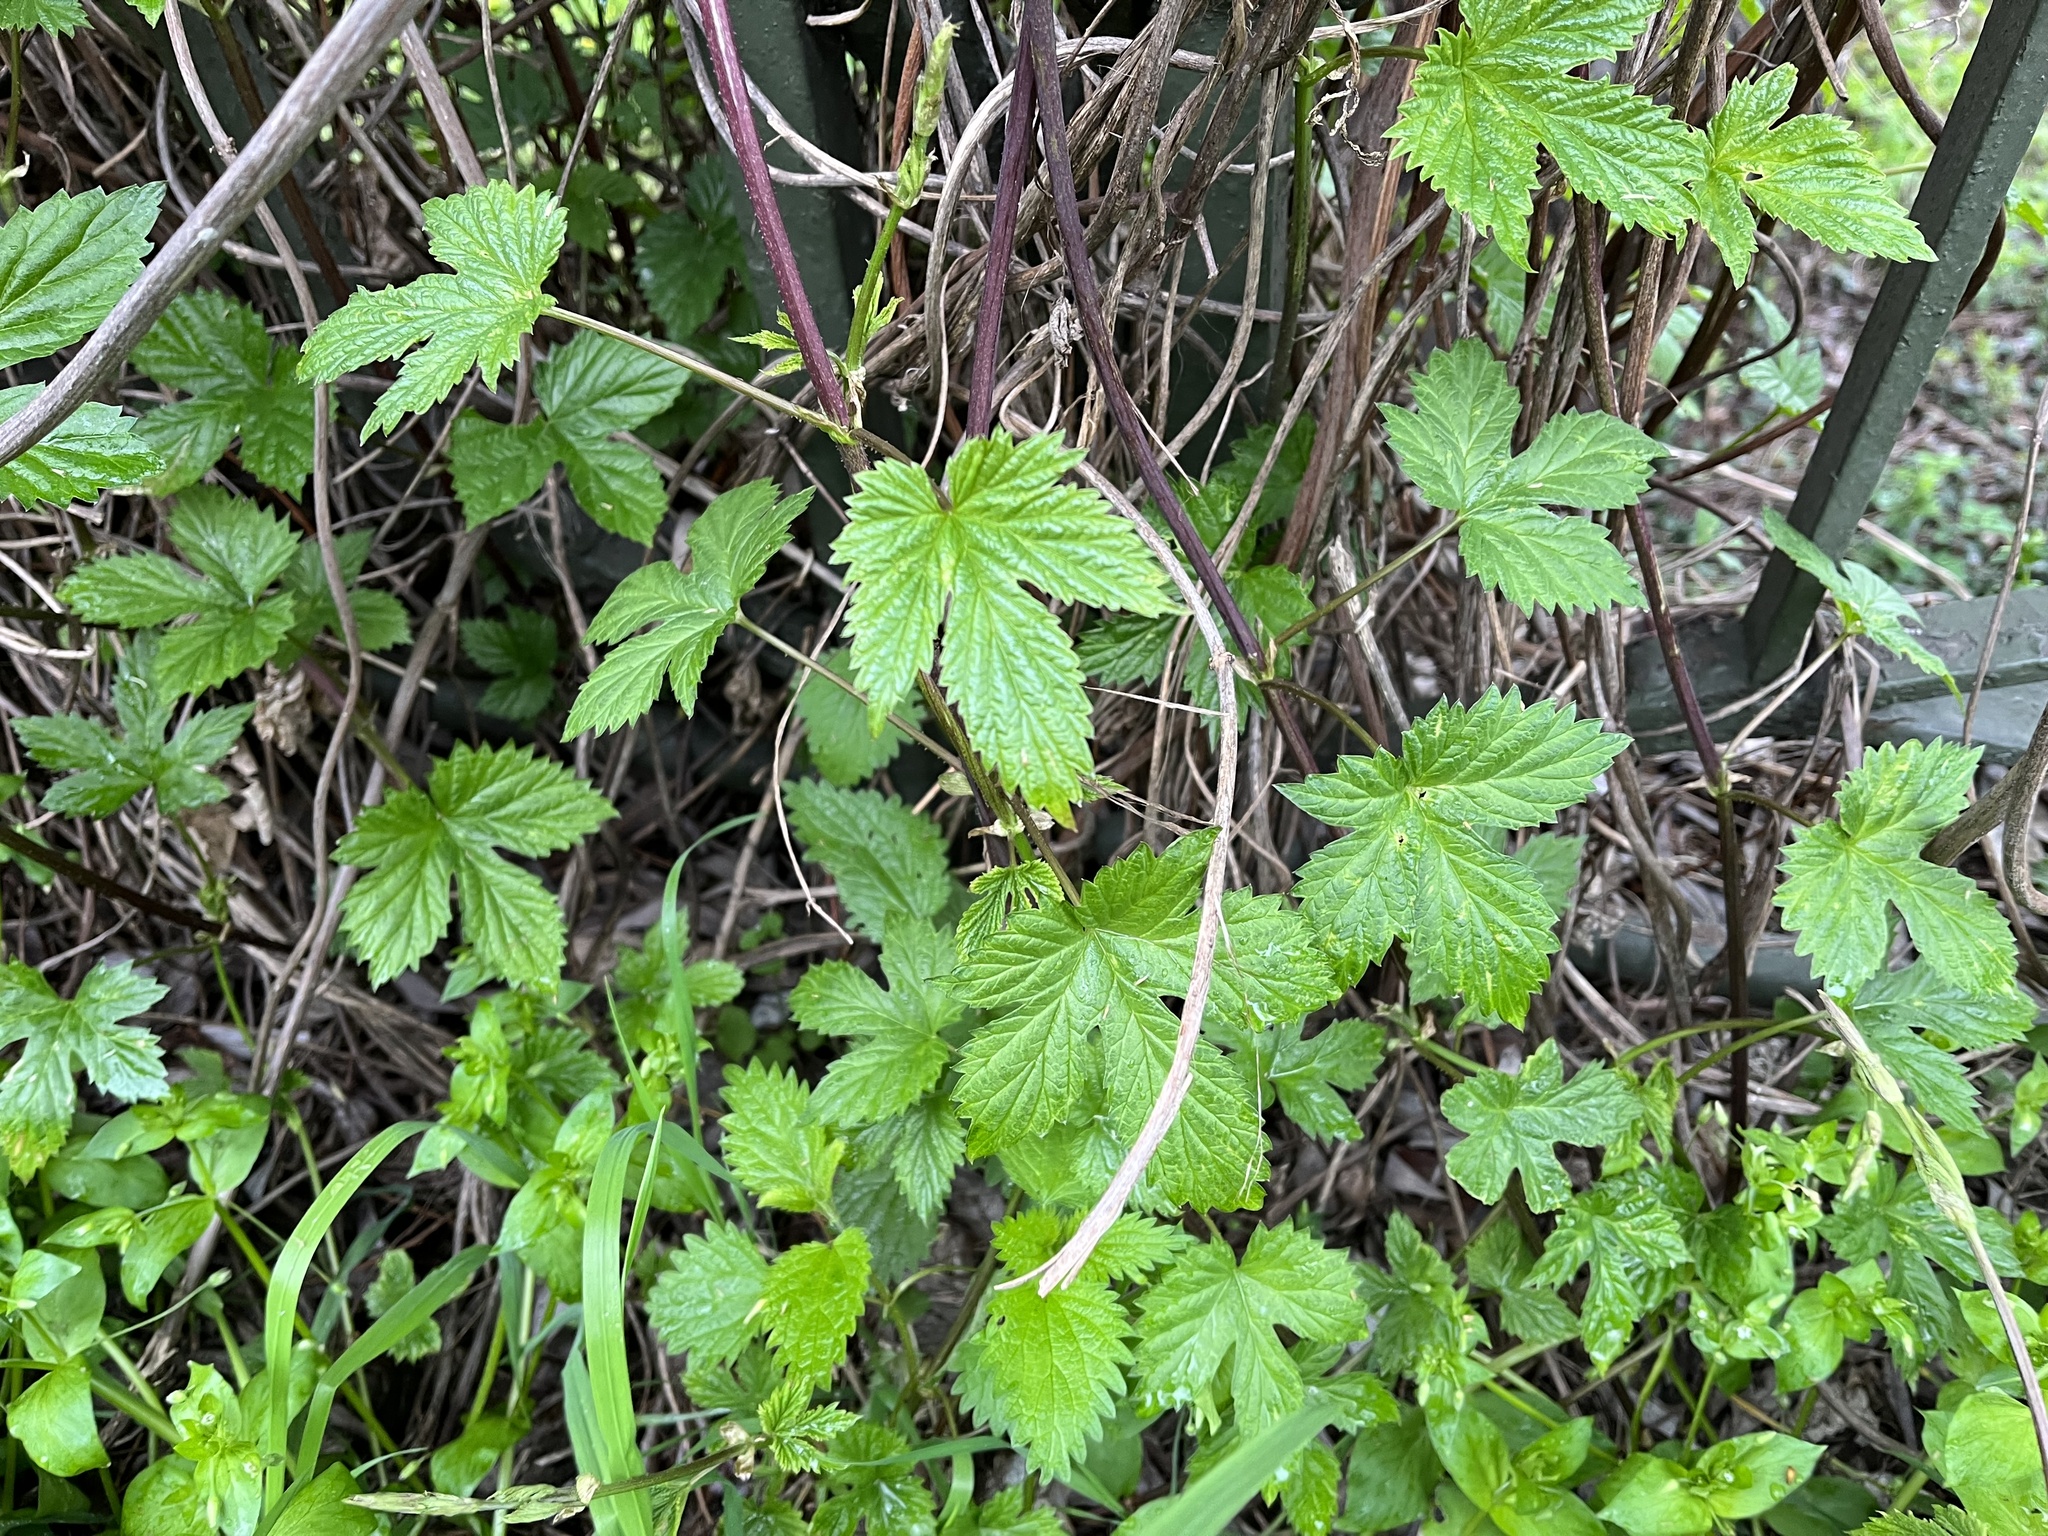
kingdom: Plantae
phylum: Tracheophyta
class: Magnoliopsida
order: Rosales
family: Cannabaceae
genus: Humulus
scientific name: Humulus lupulus
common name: Hop
